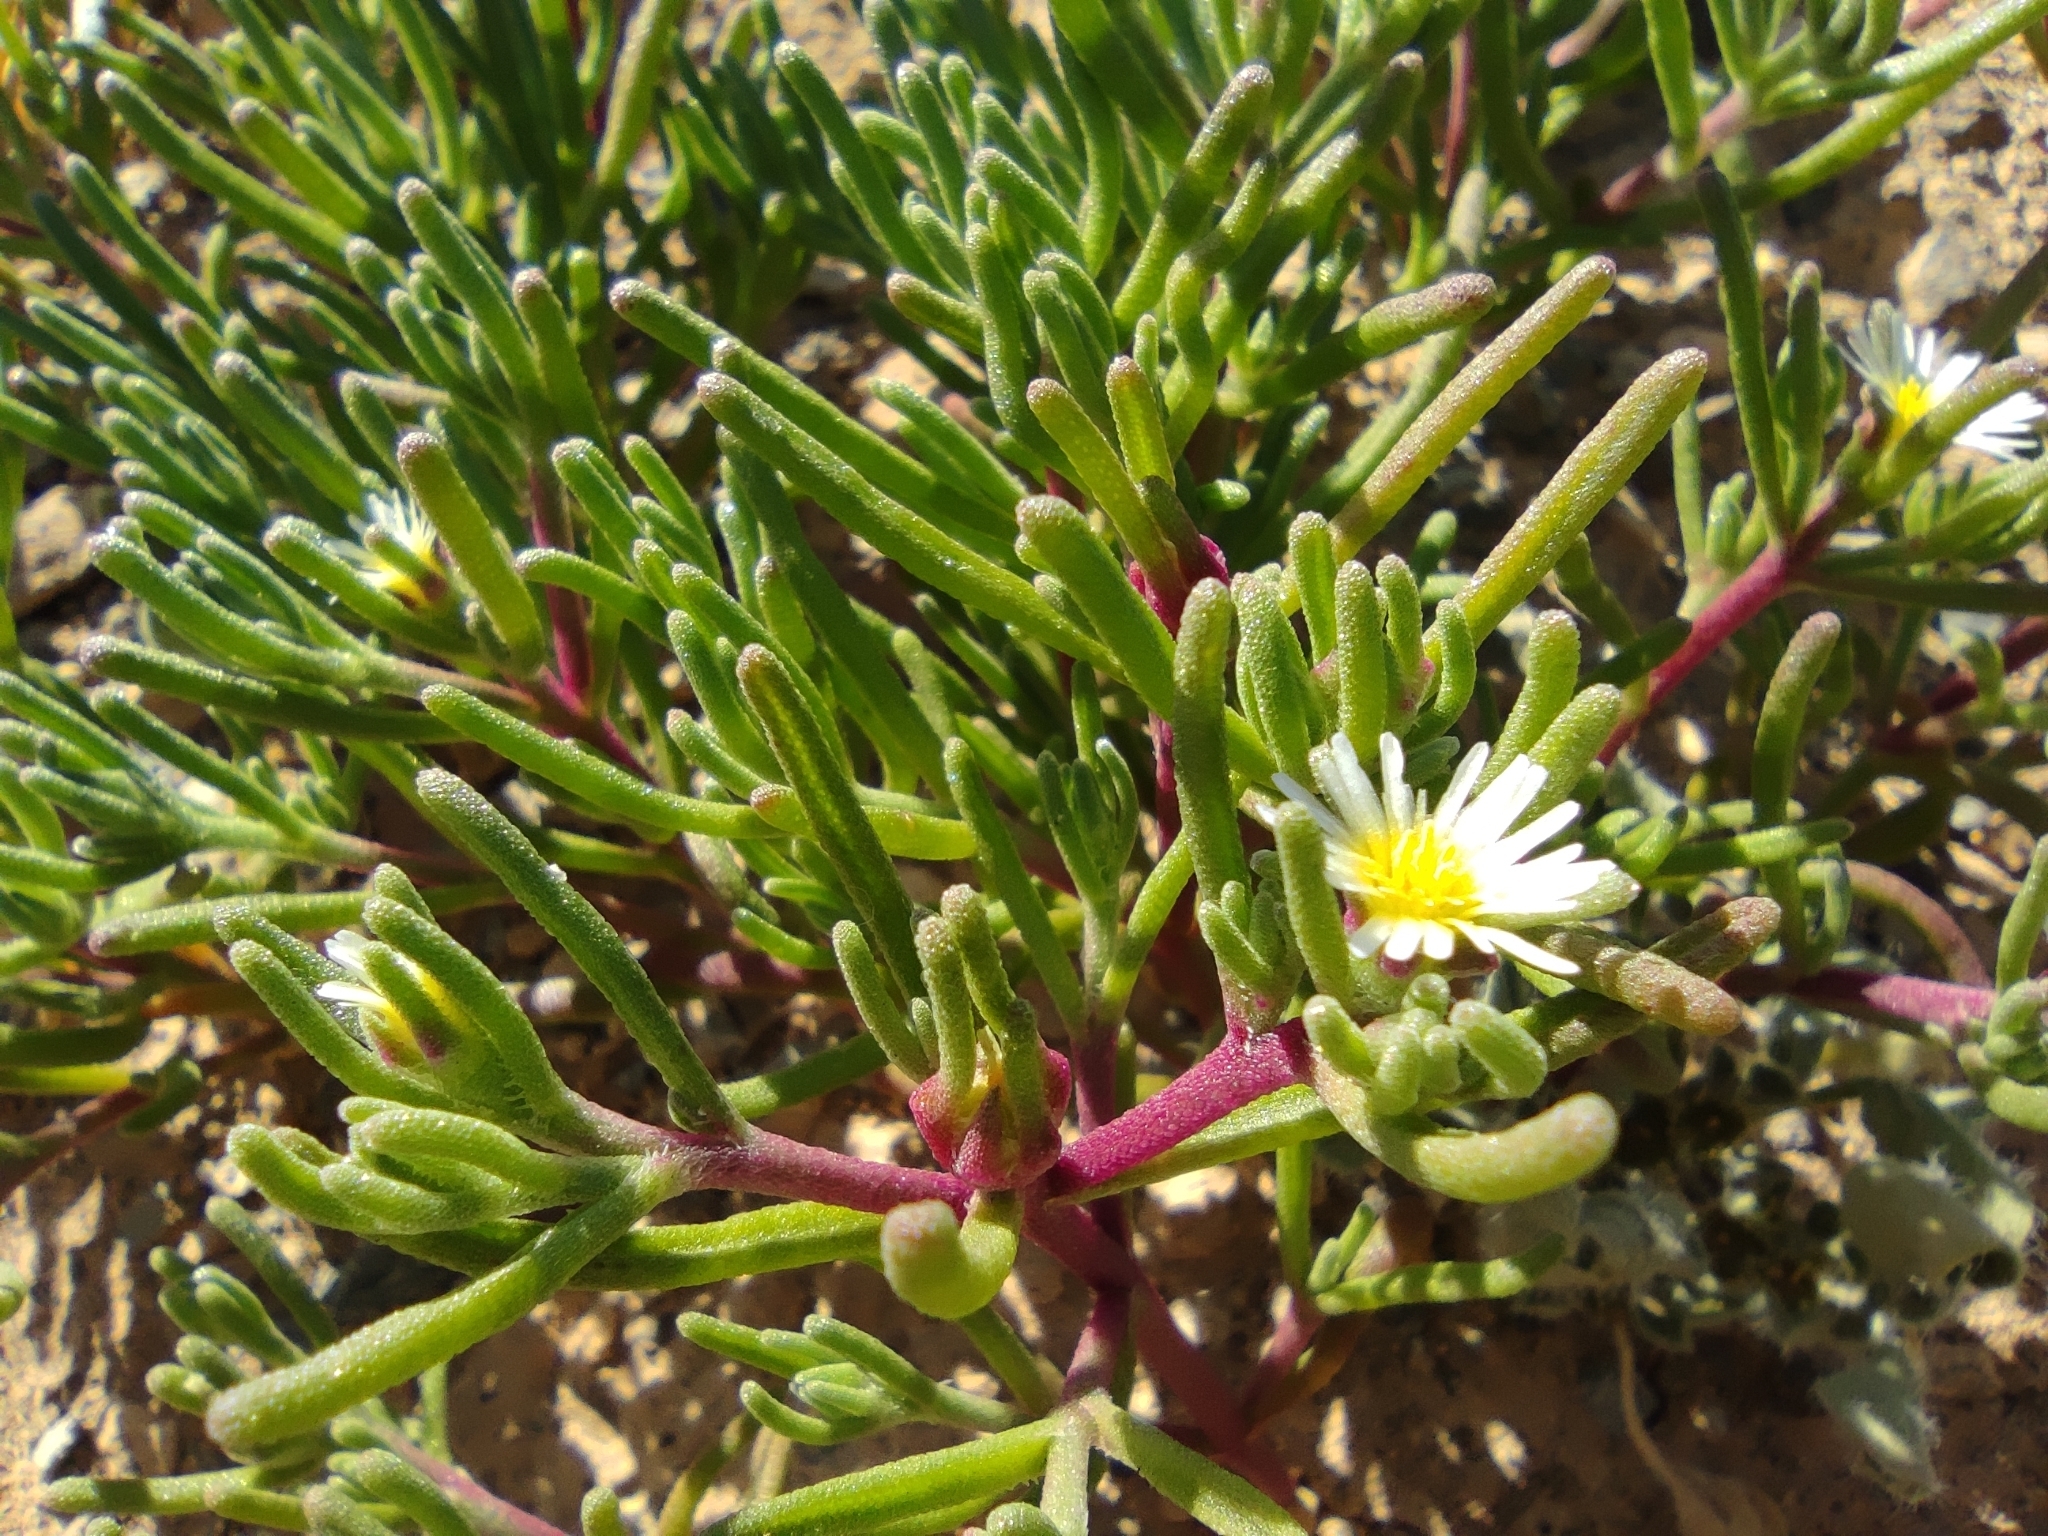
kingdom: Plantae
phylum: Tracheophyta
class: Magnoliopsida
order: Caryophyllales
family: Aizoaceae
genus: Mesembryanthemum
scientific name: Mesembryanthemum nodiflorum
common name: Slenderleaf iceplant
